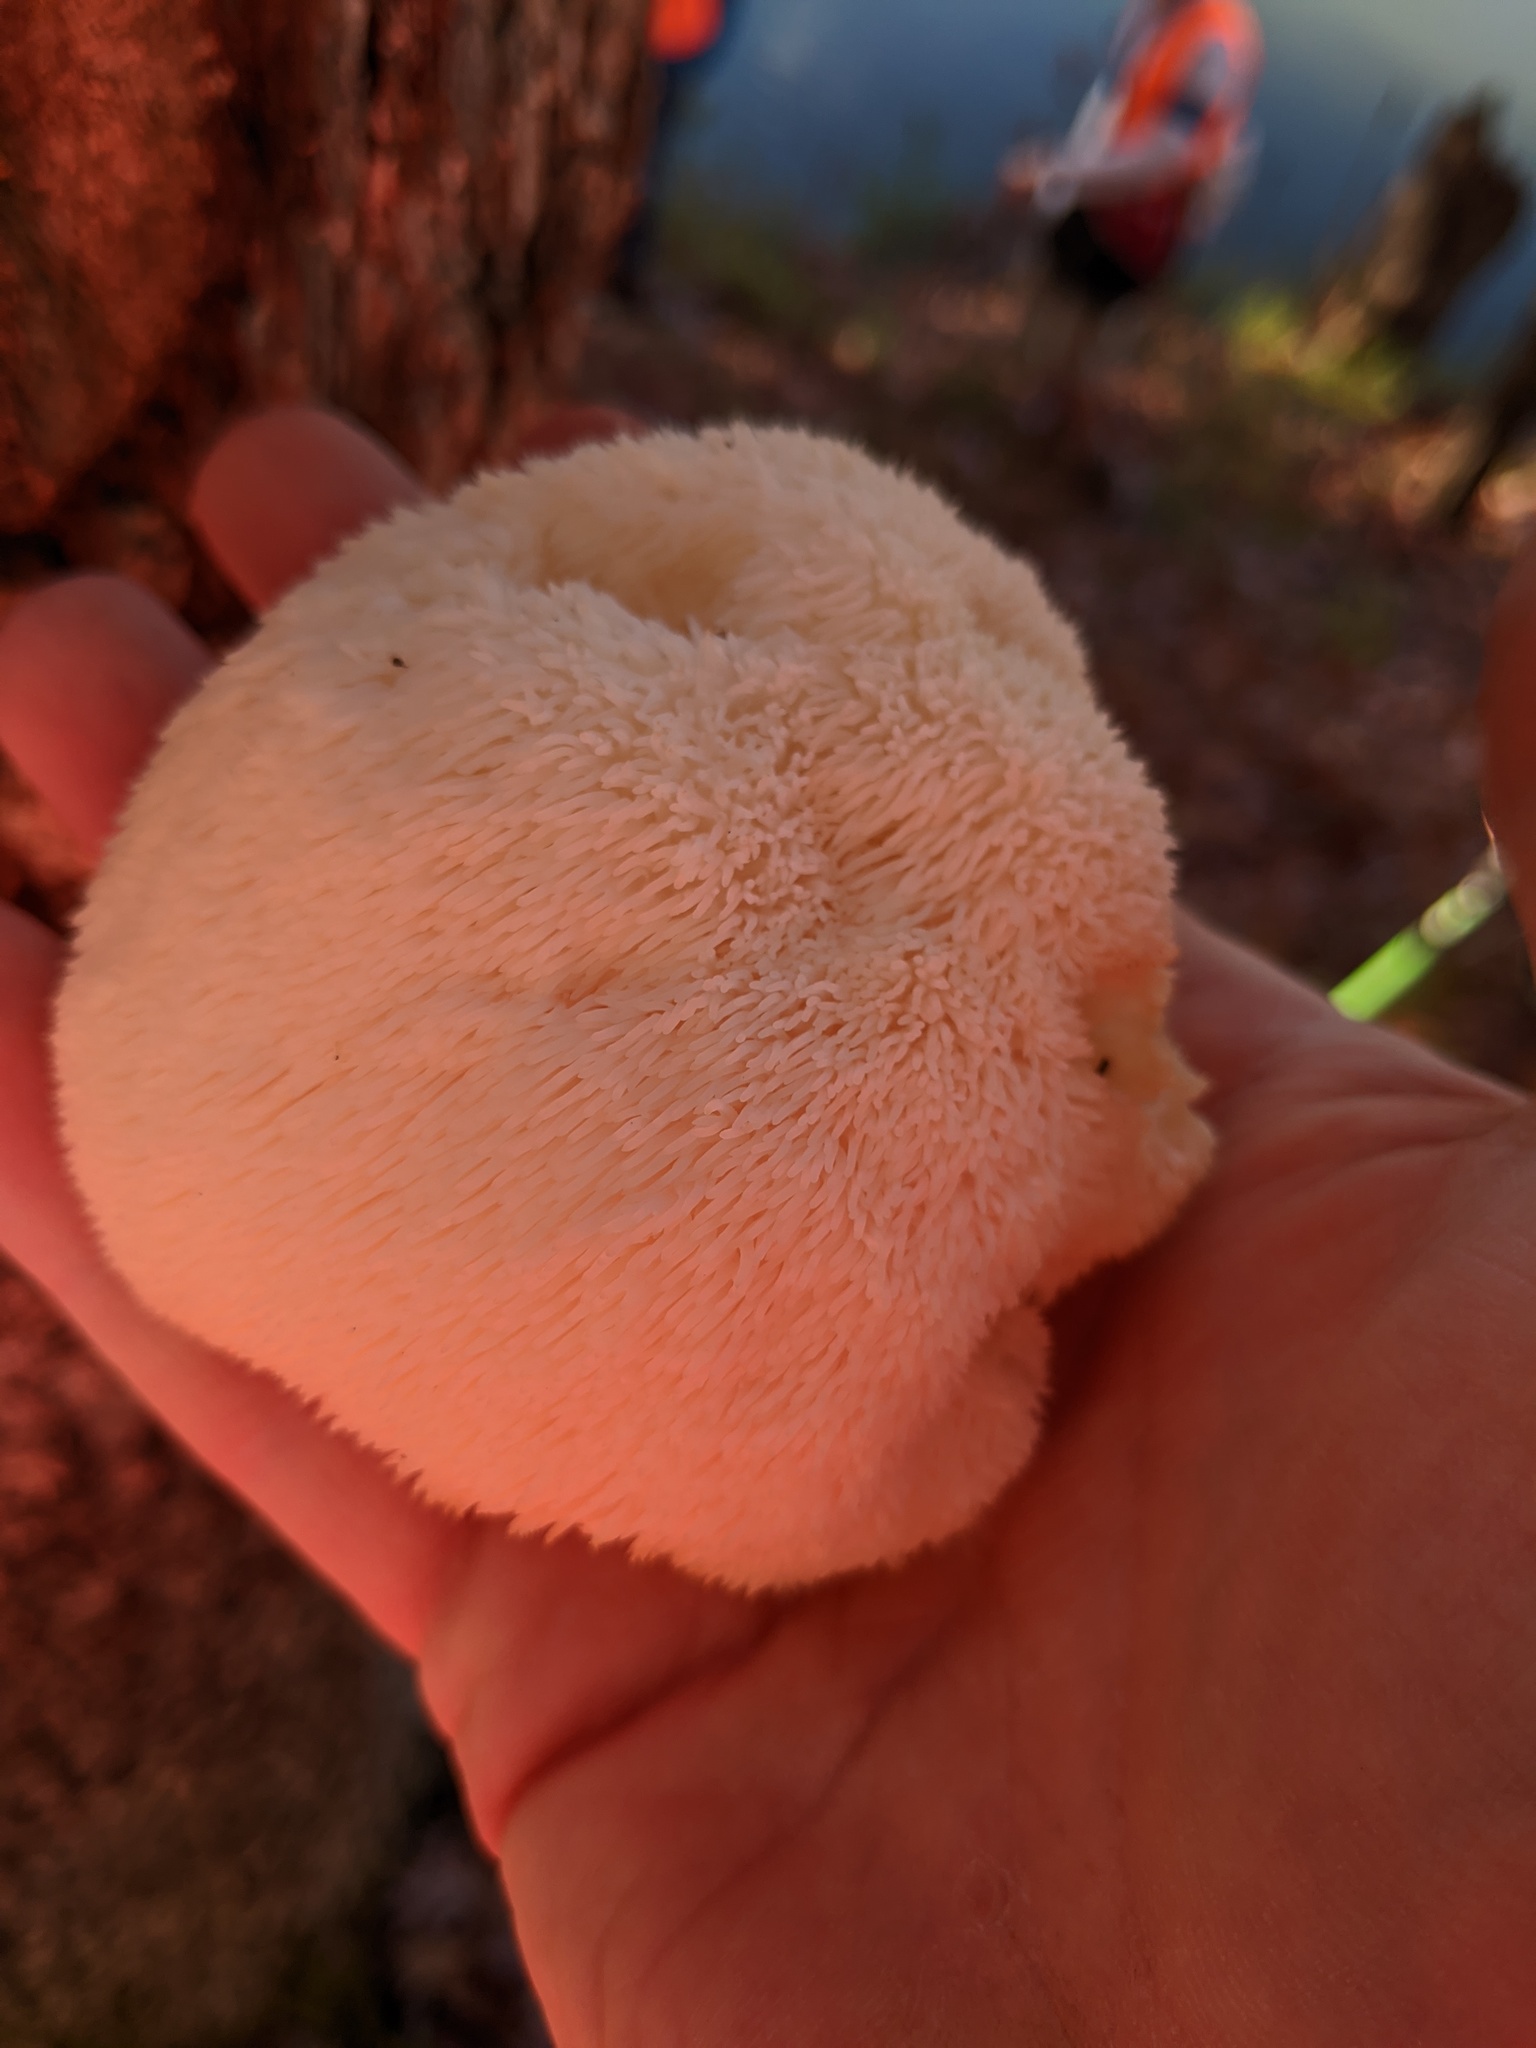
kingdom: Fungi
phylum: Basidiomycota
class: Agaricomycetes
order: Russulales
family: Hericiaceae
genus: Hericium
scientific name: Hericium erinaceus
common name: Bearded tooth
